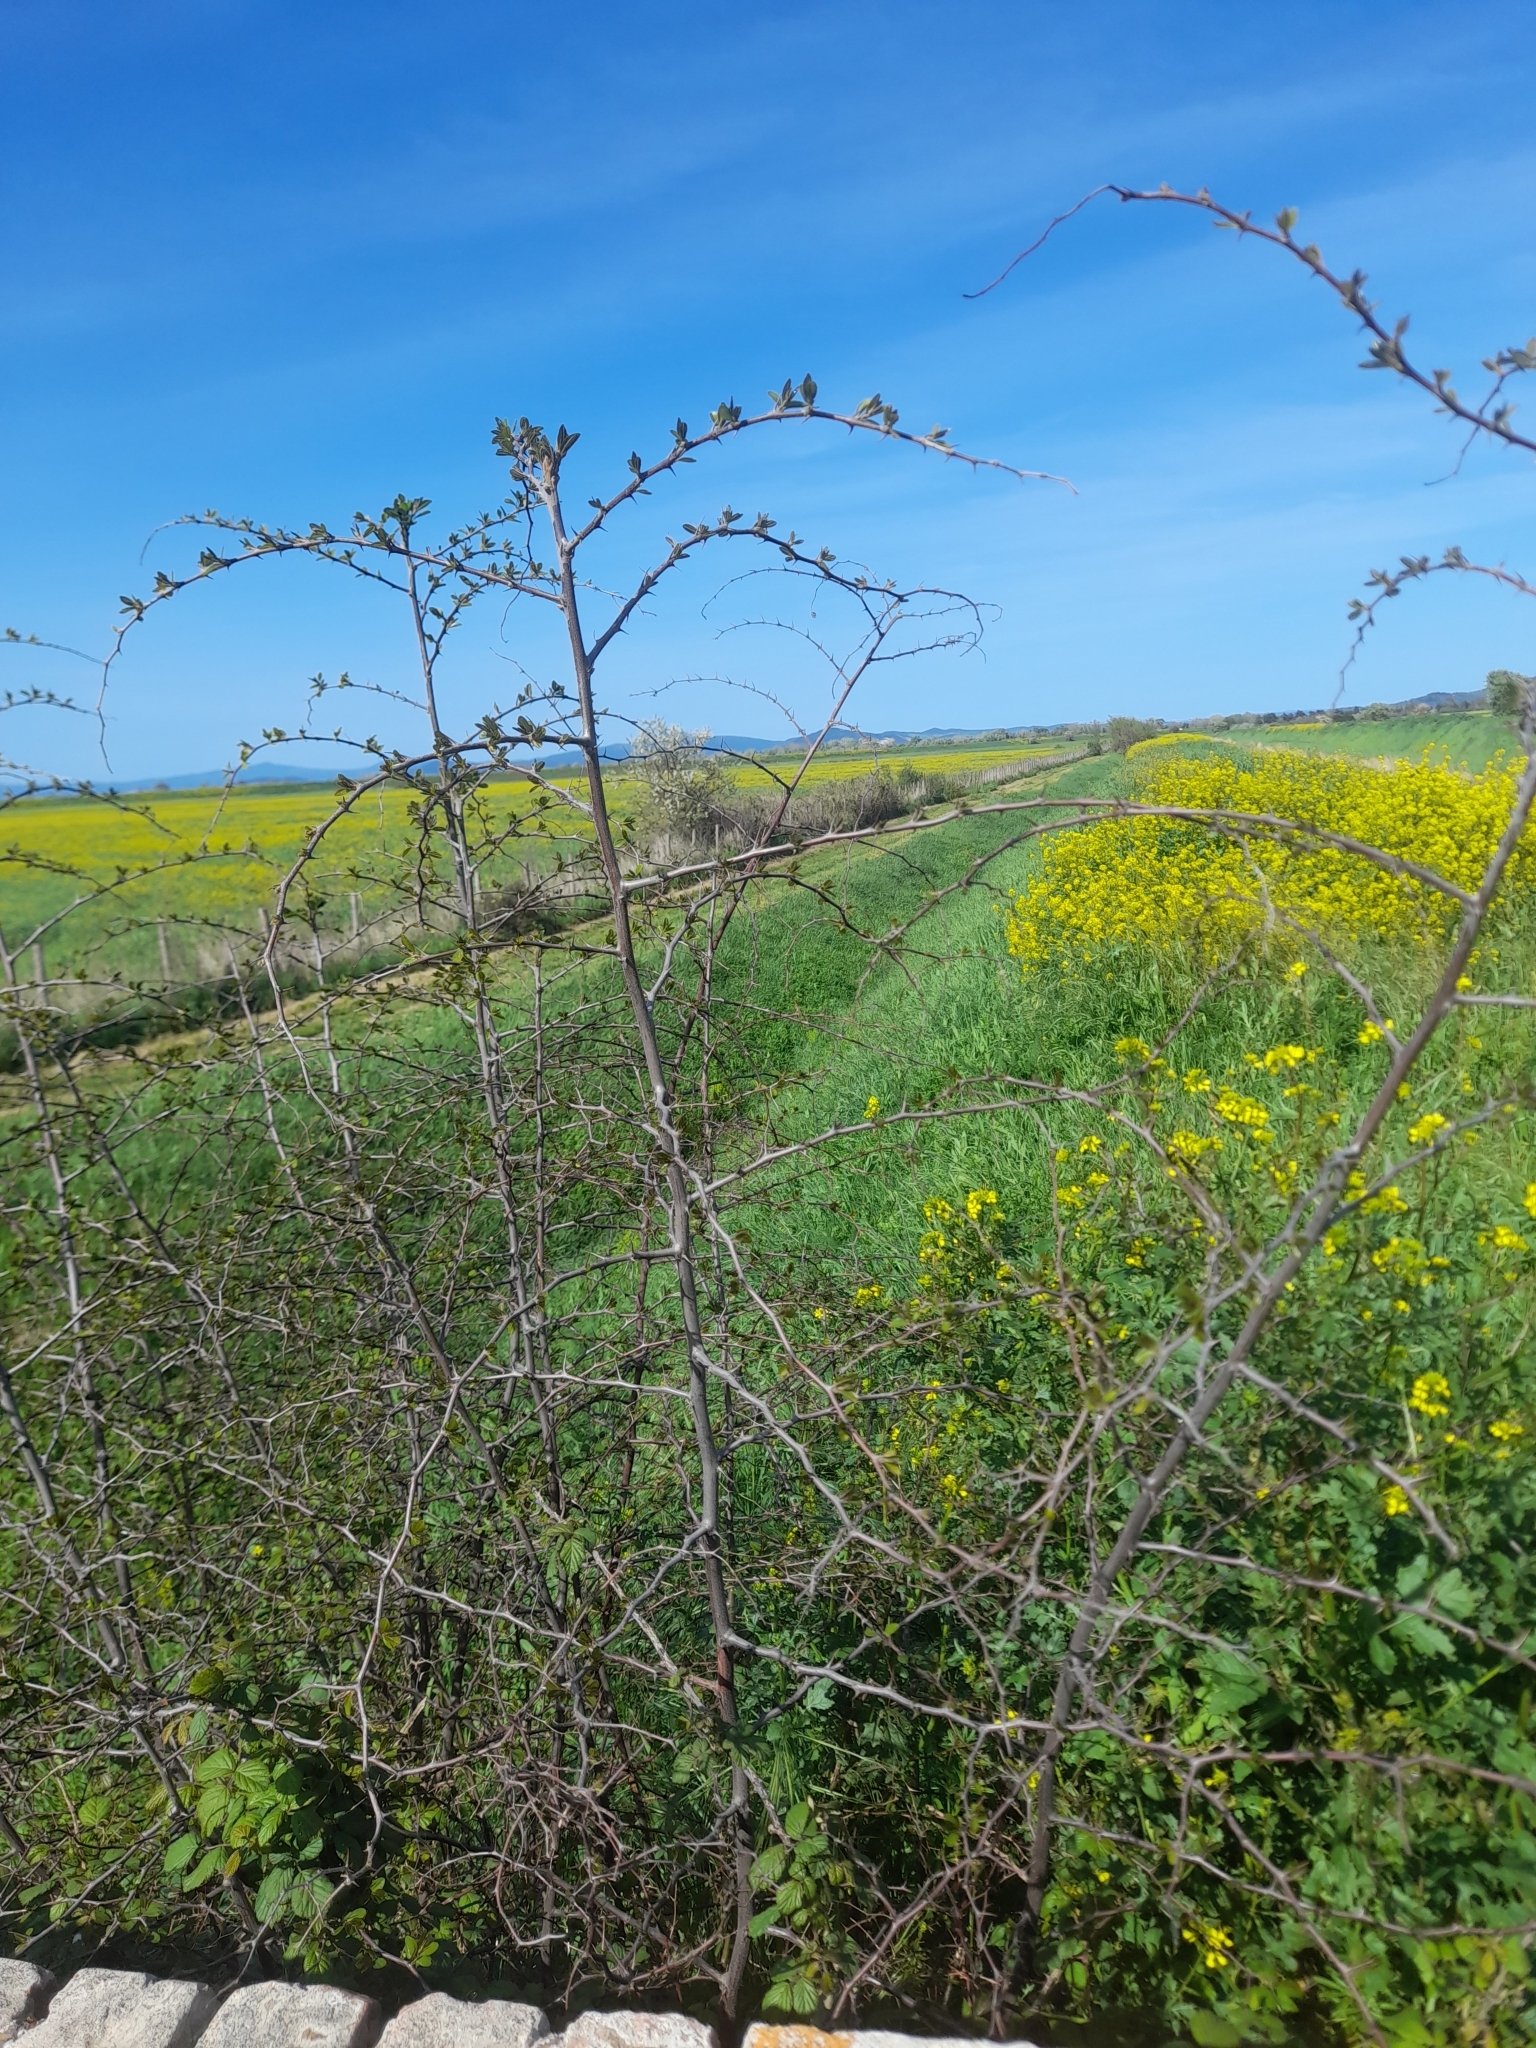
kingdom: Plantae
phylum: Tracheophyta
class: Magnoliopsida
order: Rosales
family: Rhamnaceae
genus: Paliurus
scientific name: Paliurus spina-christi
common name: Jeruselem thorn
